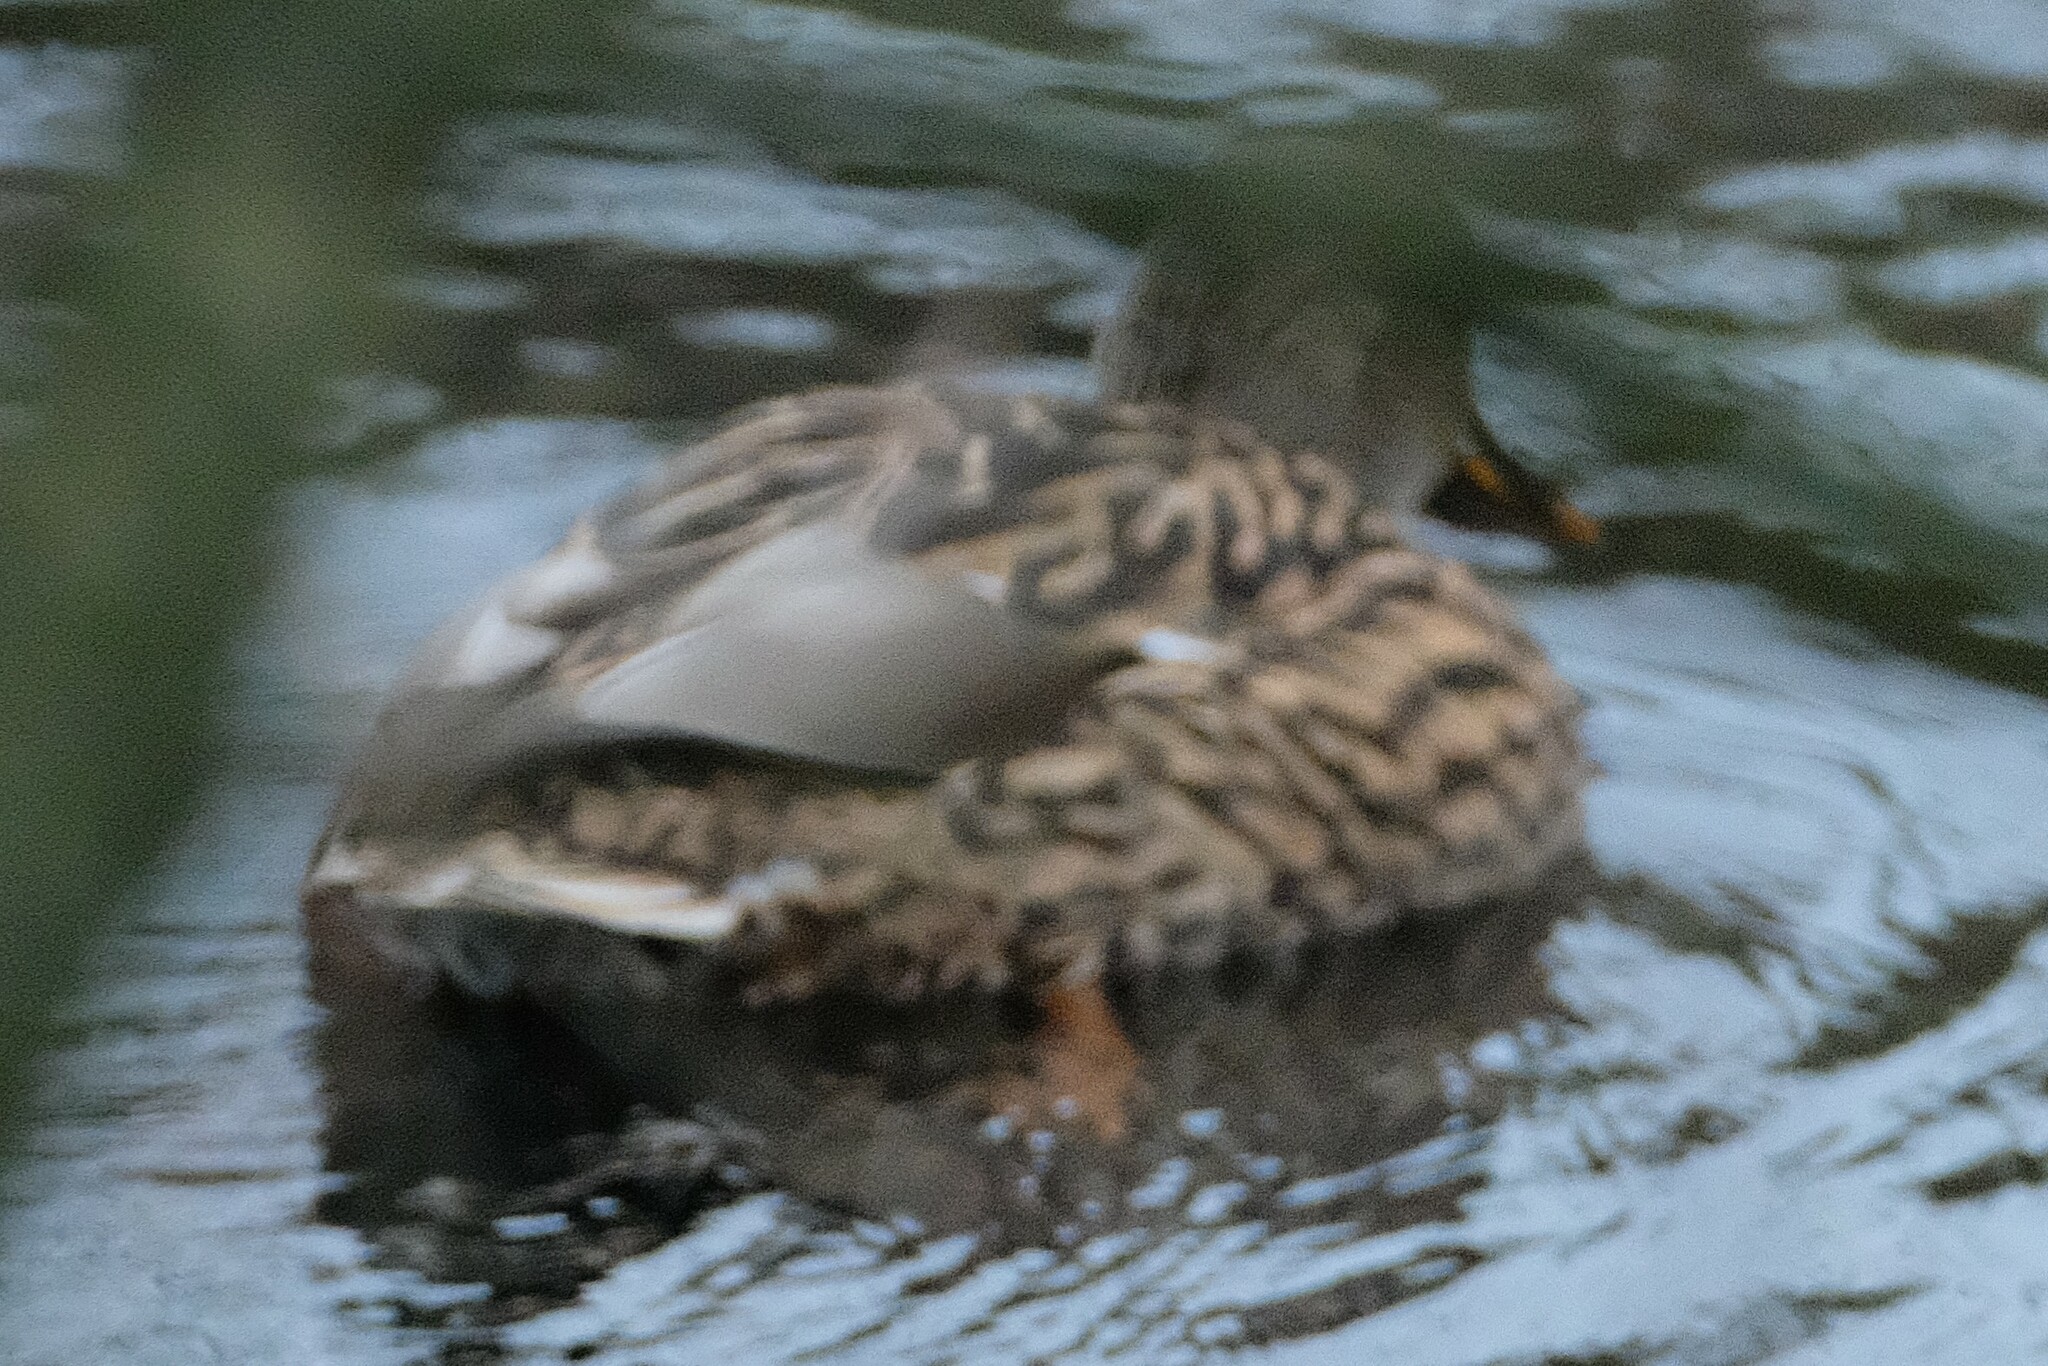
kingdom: Animalia
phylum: Chordata
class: Aves
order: Anseriformes
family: Anatidae
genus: Anas
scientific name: Anas platyrhynchos
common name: Mallard
